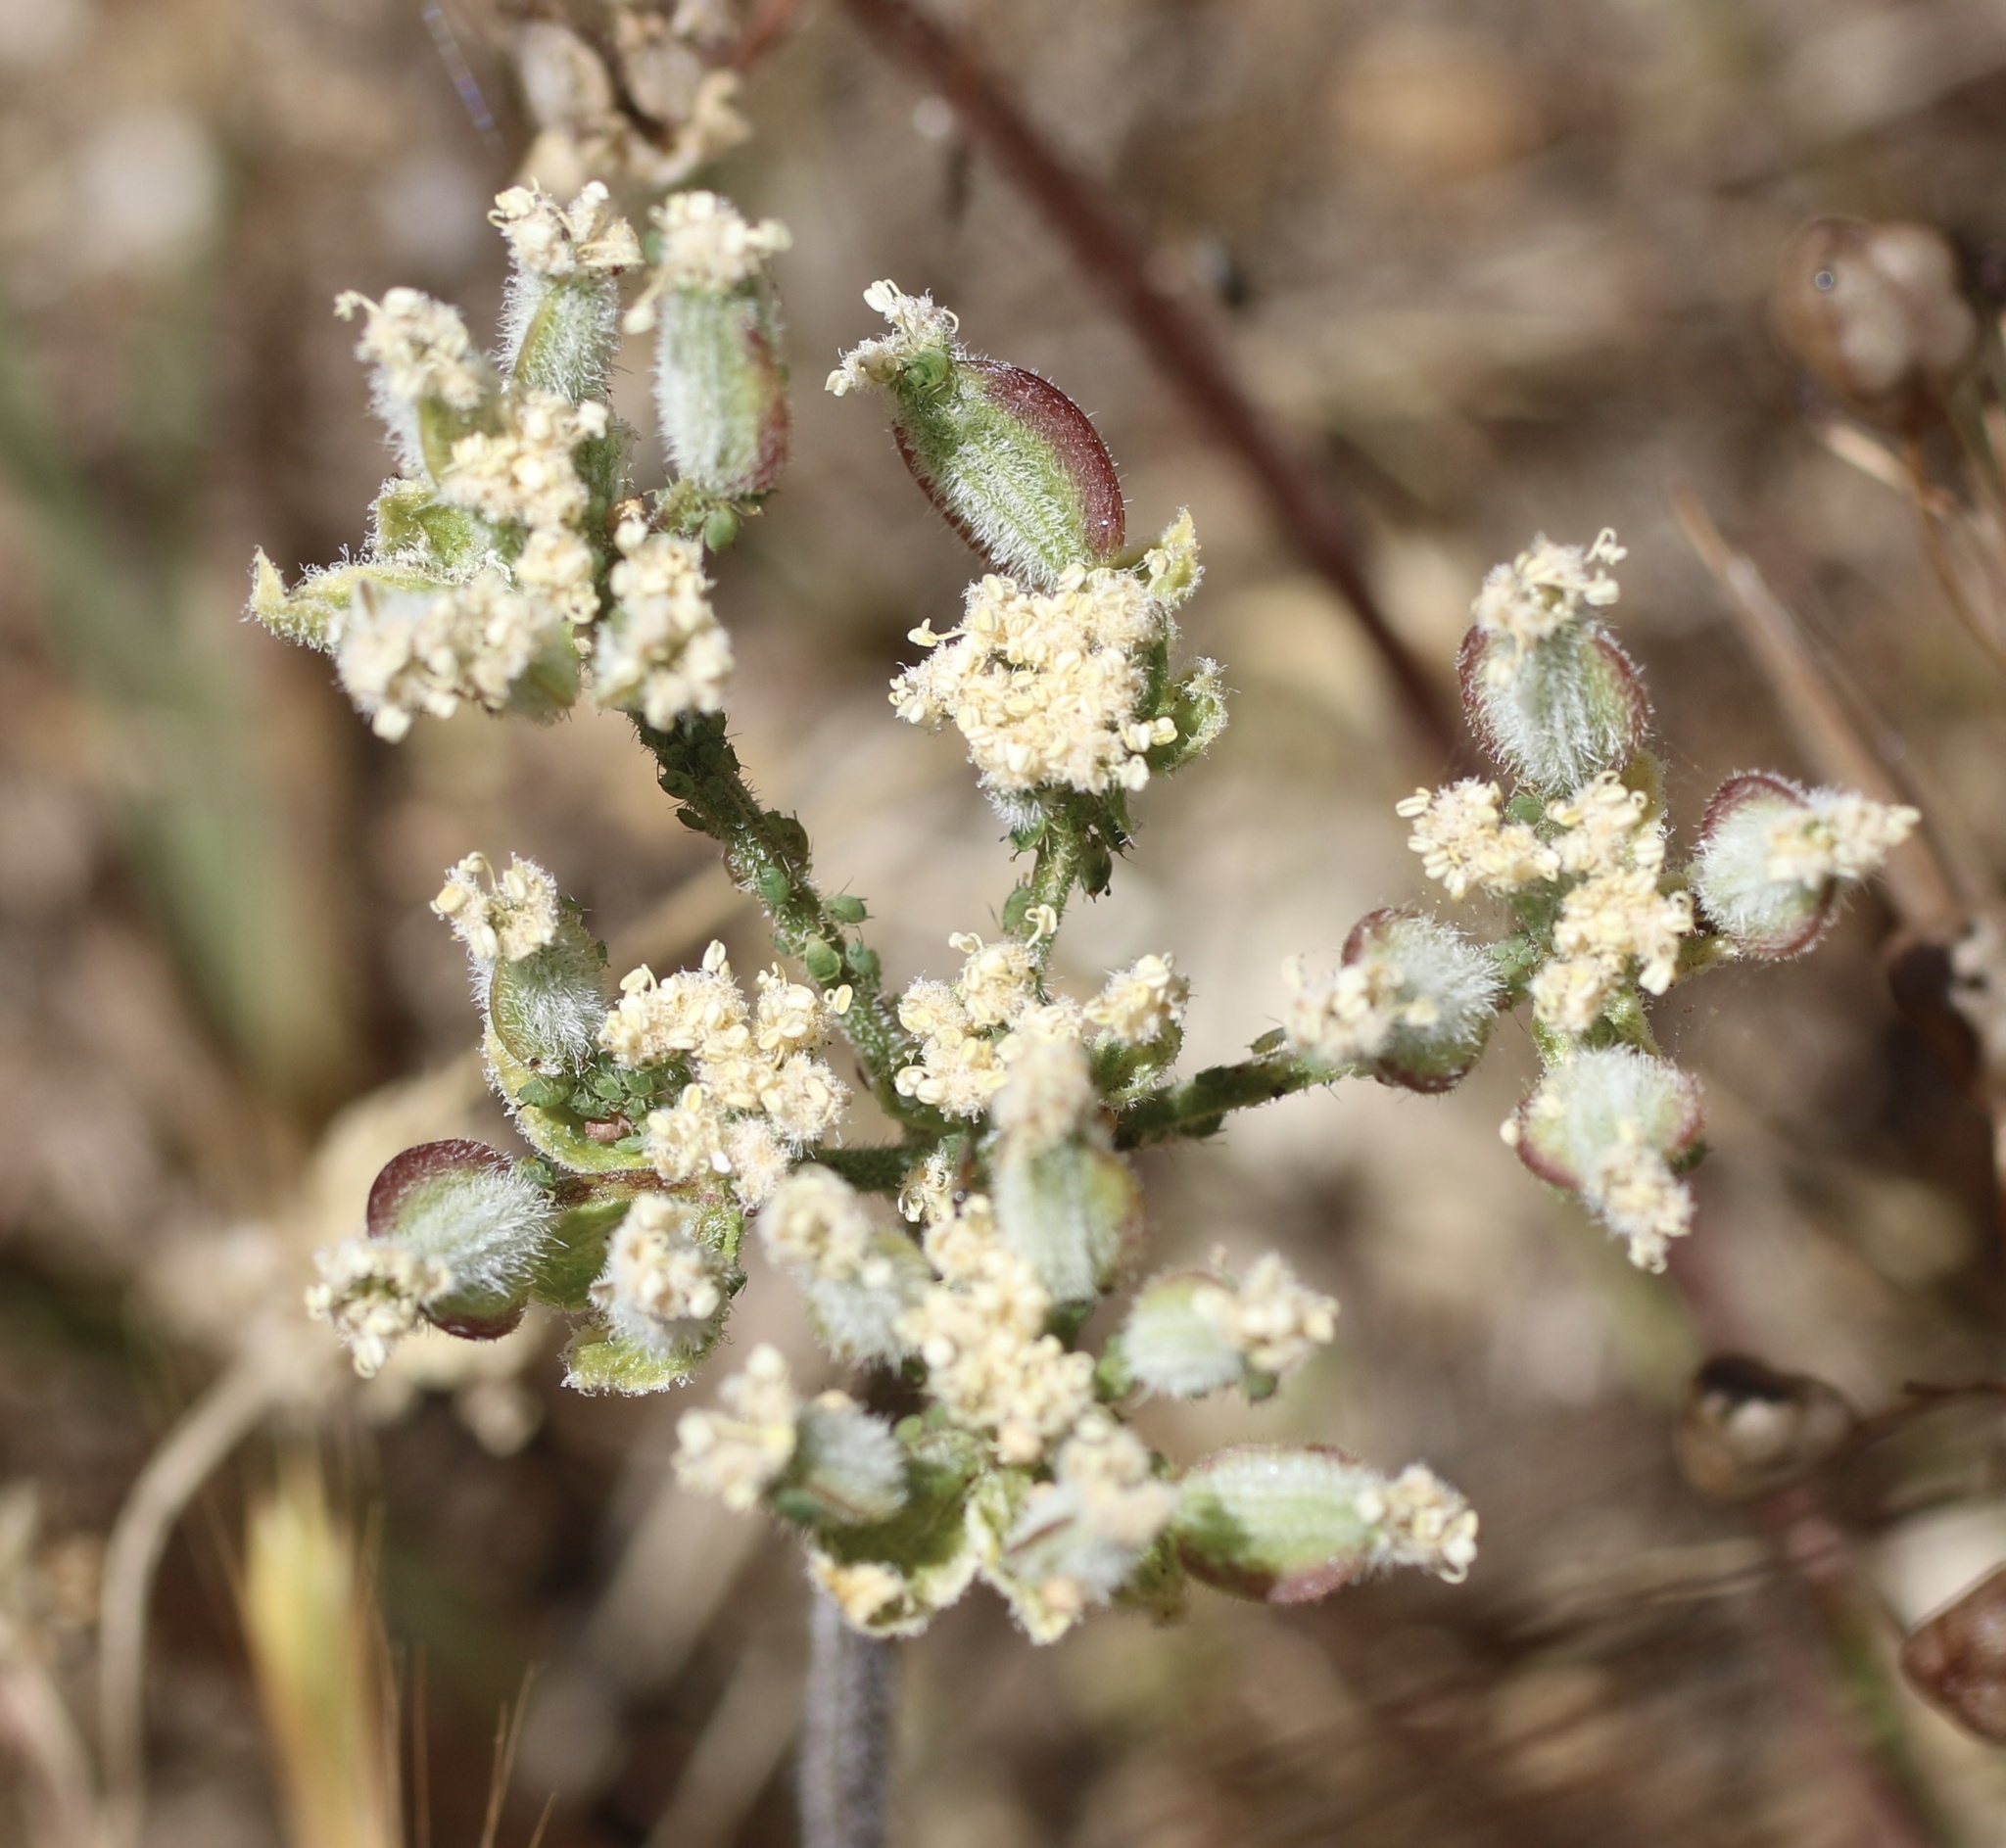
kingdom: Plantae
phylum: Tracheophyta
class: Magnoliopsida
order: Apiales
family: Apiaceae
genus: Lomatium
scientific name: Lomatium dasycarpum
